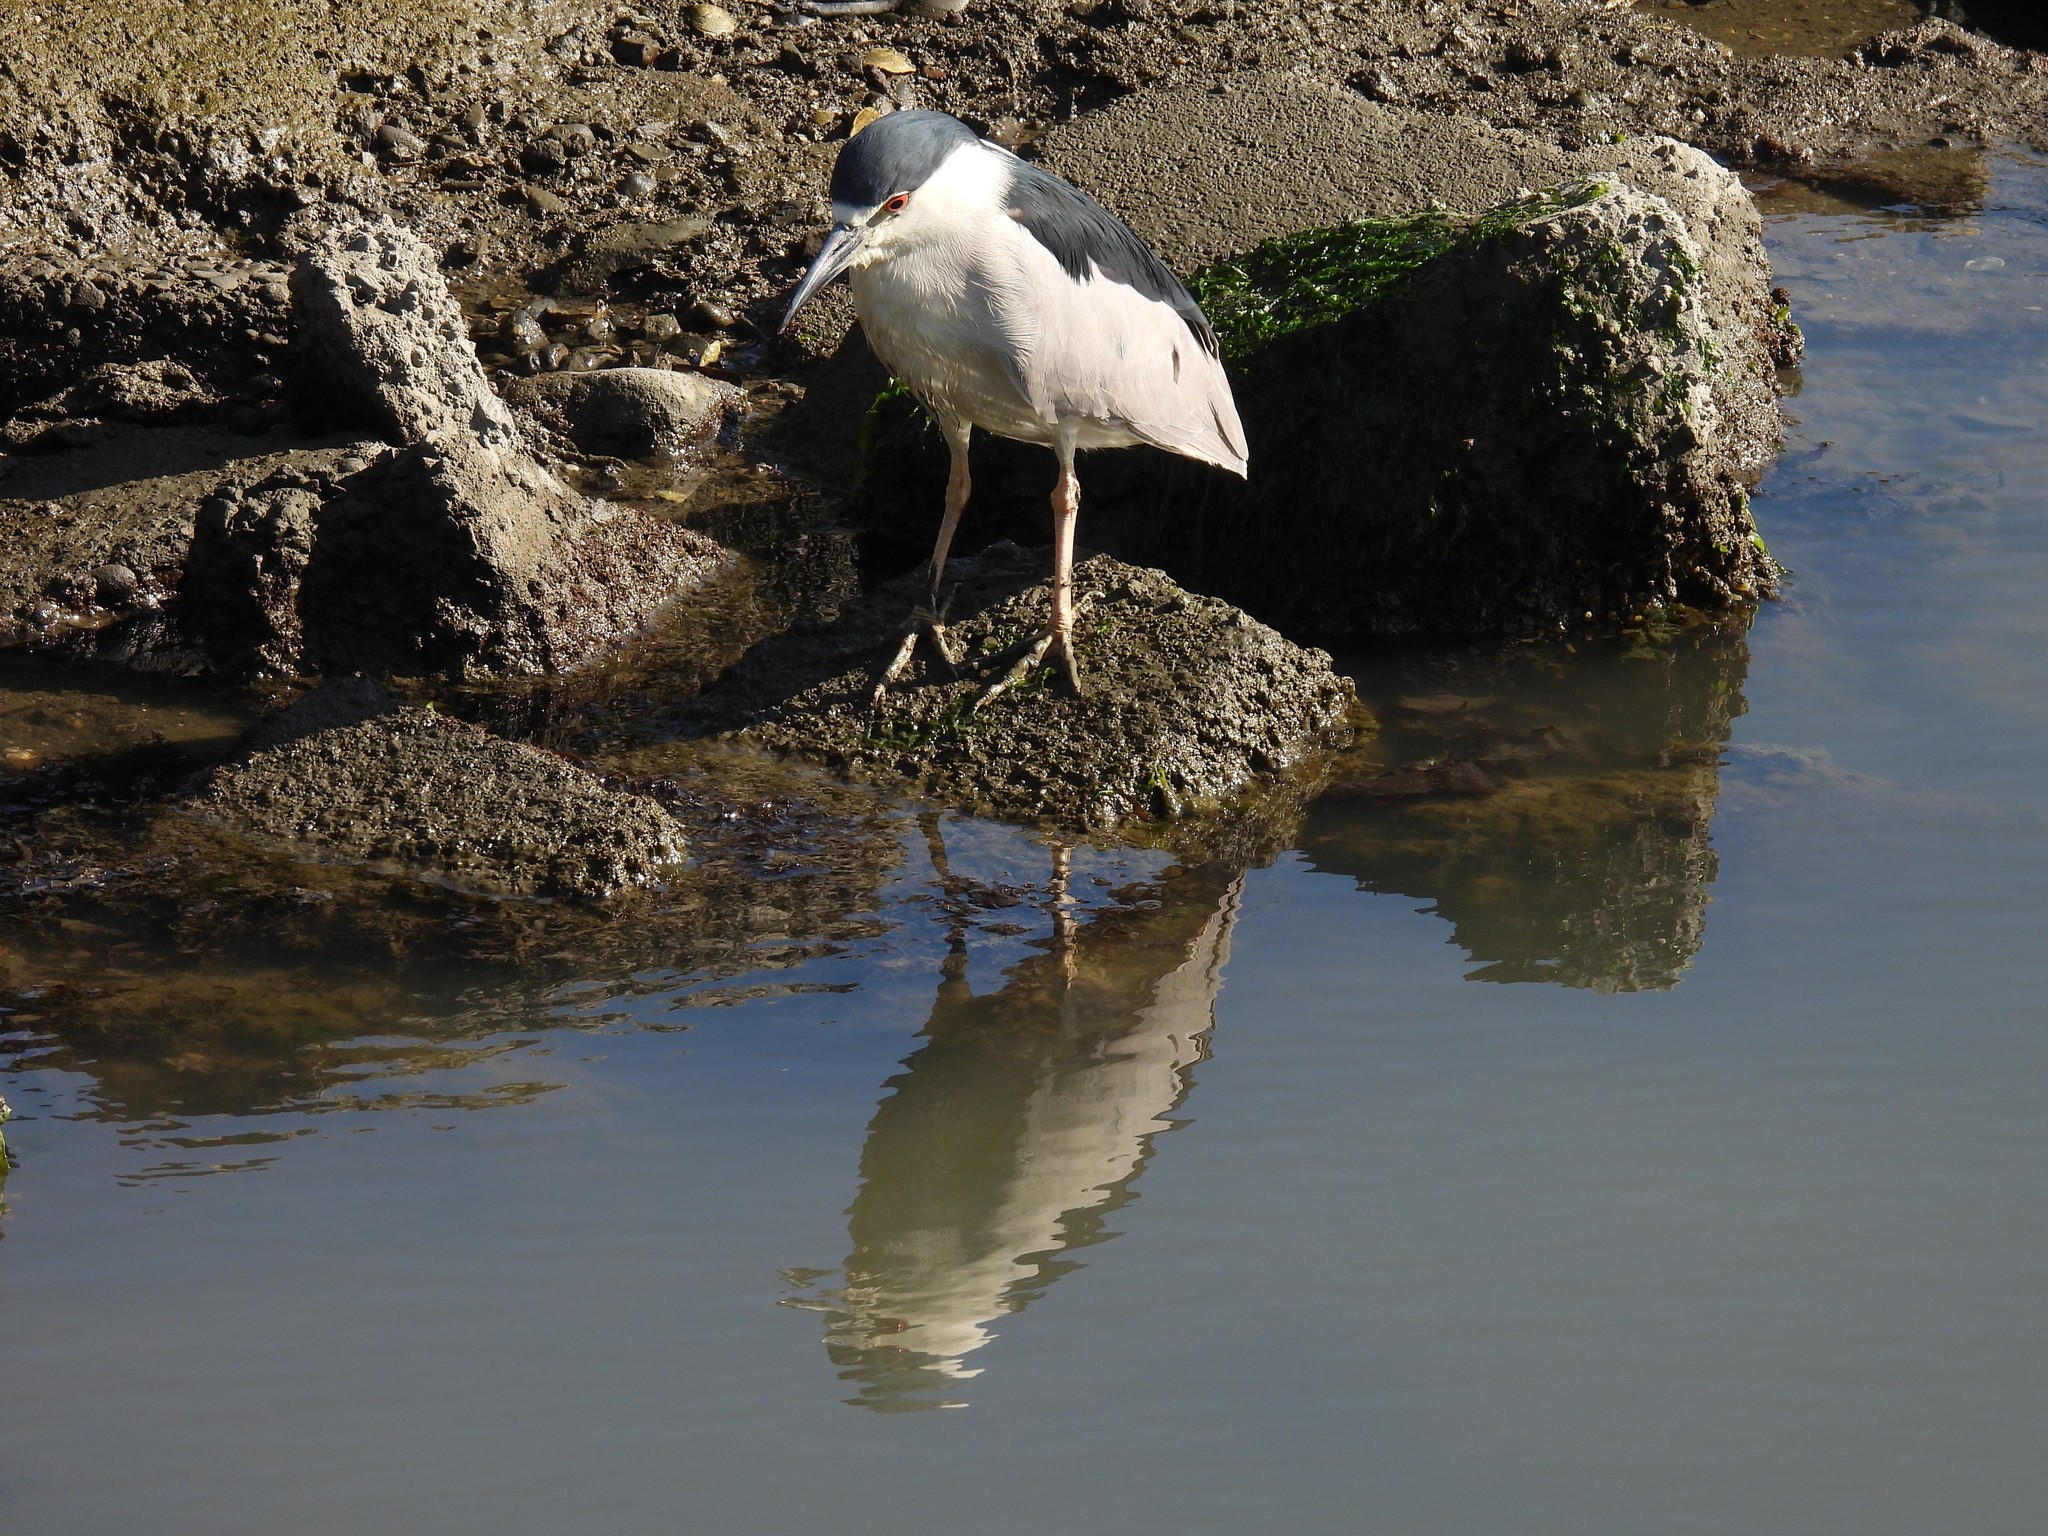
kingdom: Animalia
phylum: Chordata
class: Aves
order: Pelecaniformes
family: Ardeidae
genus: Nycticorax
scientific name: Nycticorax nycticorax
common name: Black-crowned night heron
